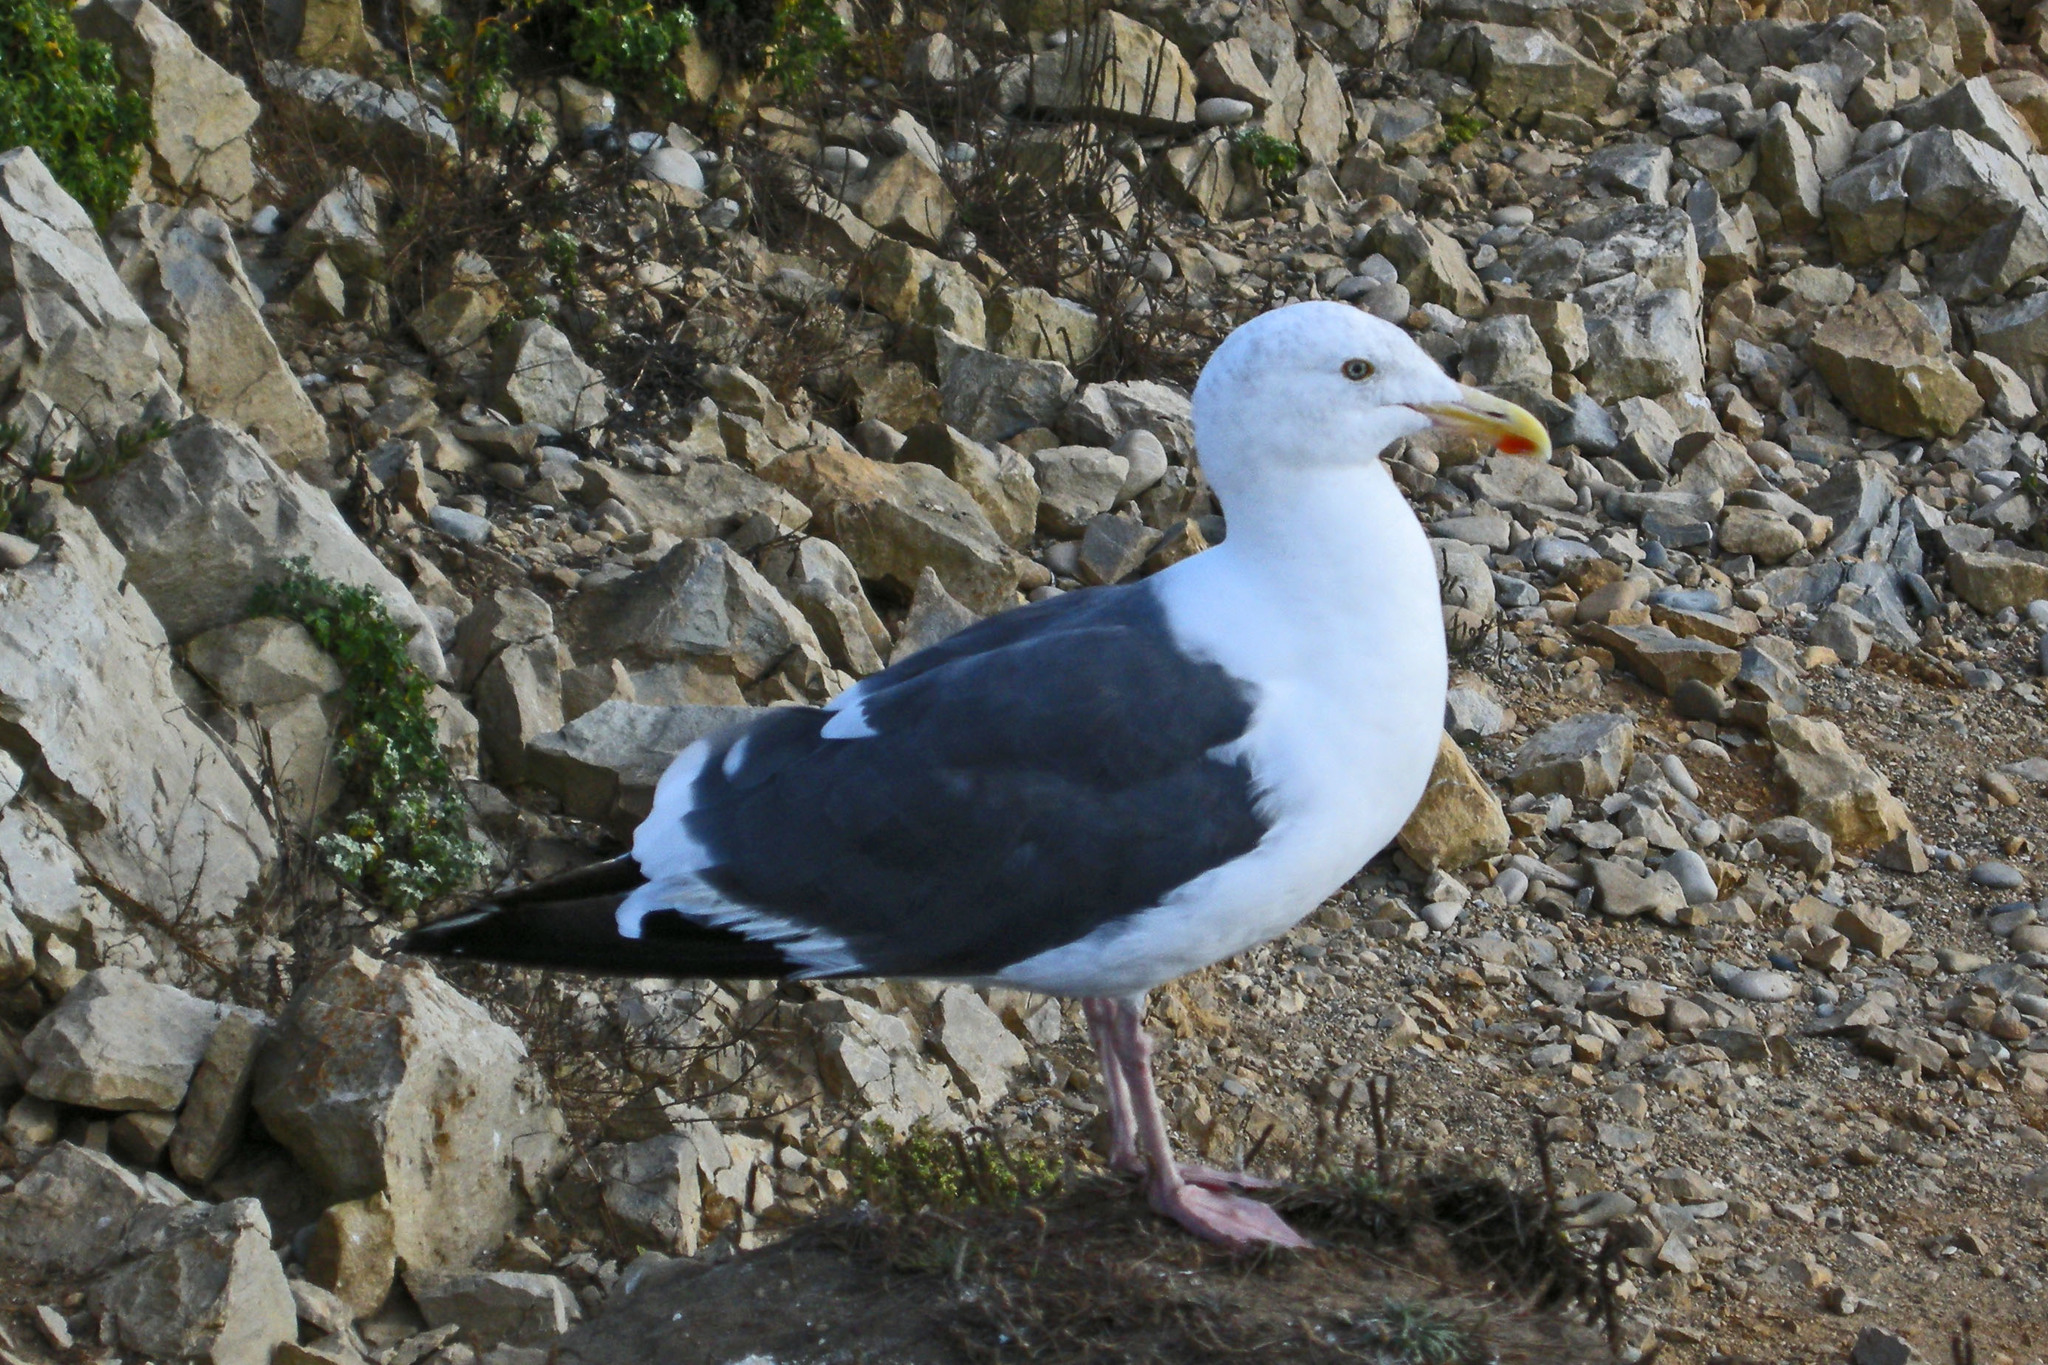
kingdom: Animalia
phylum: Chordata
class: Aves
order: Charadriiformes
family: Laridae
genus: Larus
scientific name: Larus occidentalis
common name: Western gull
